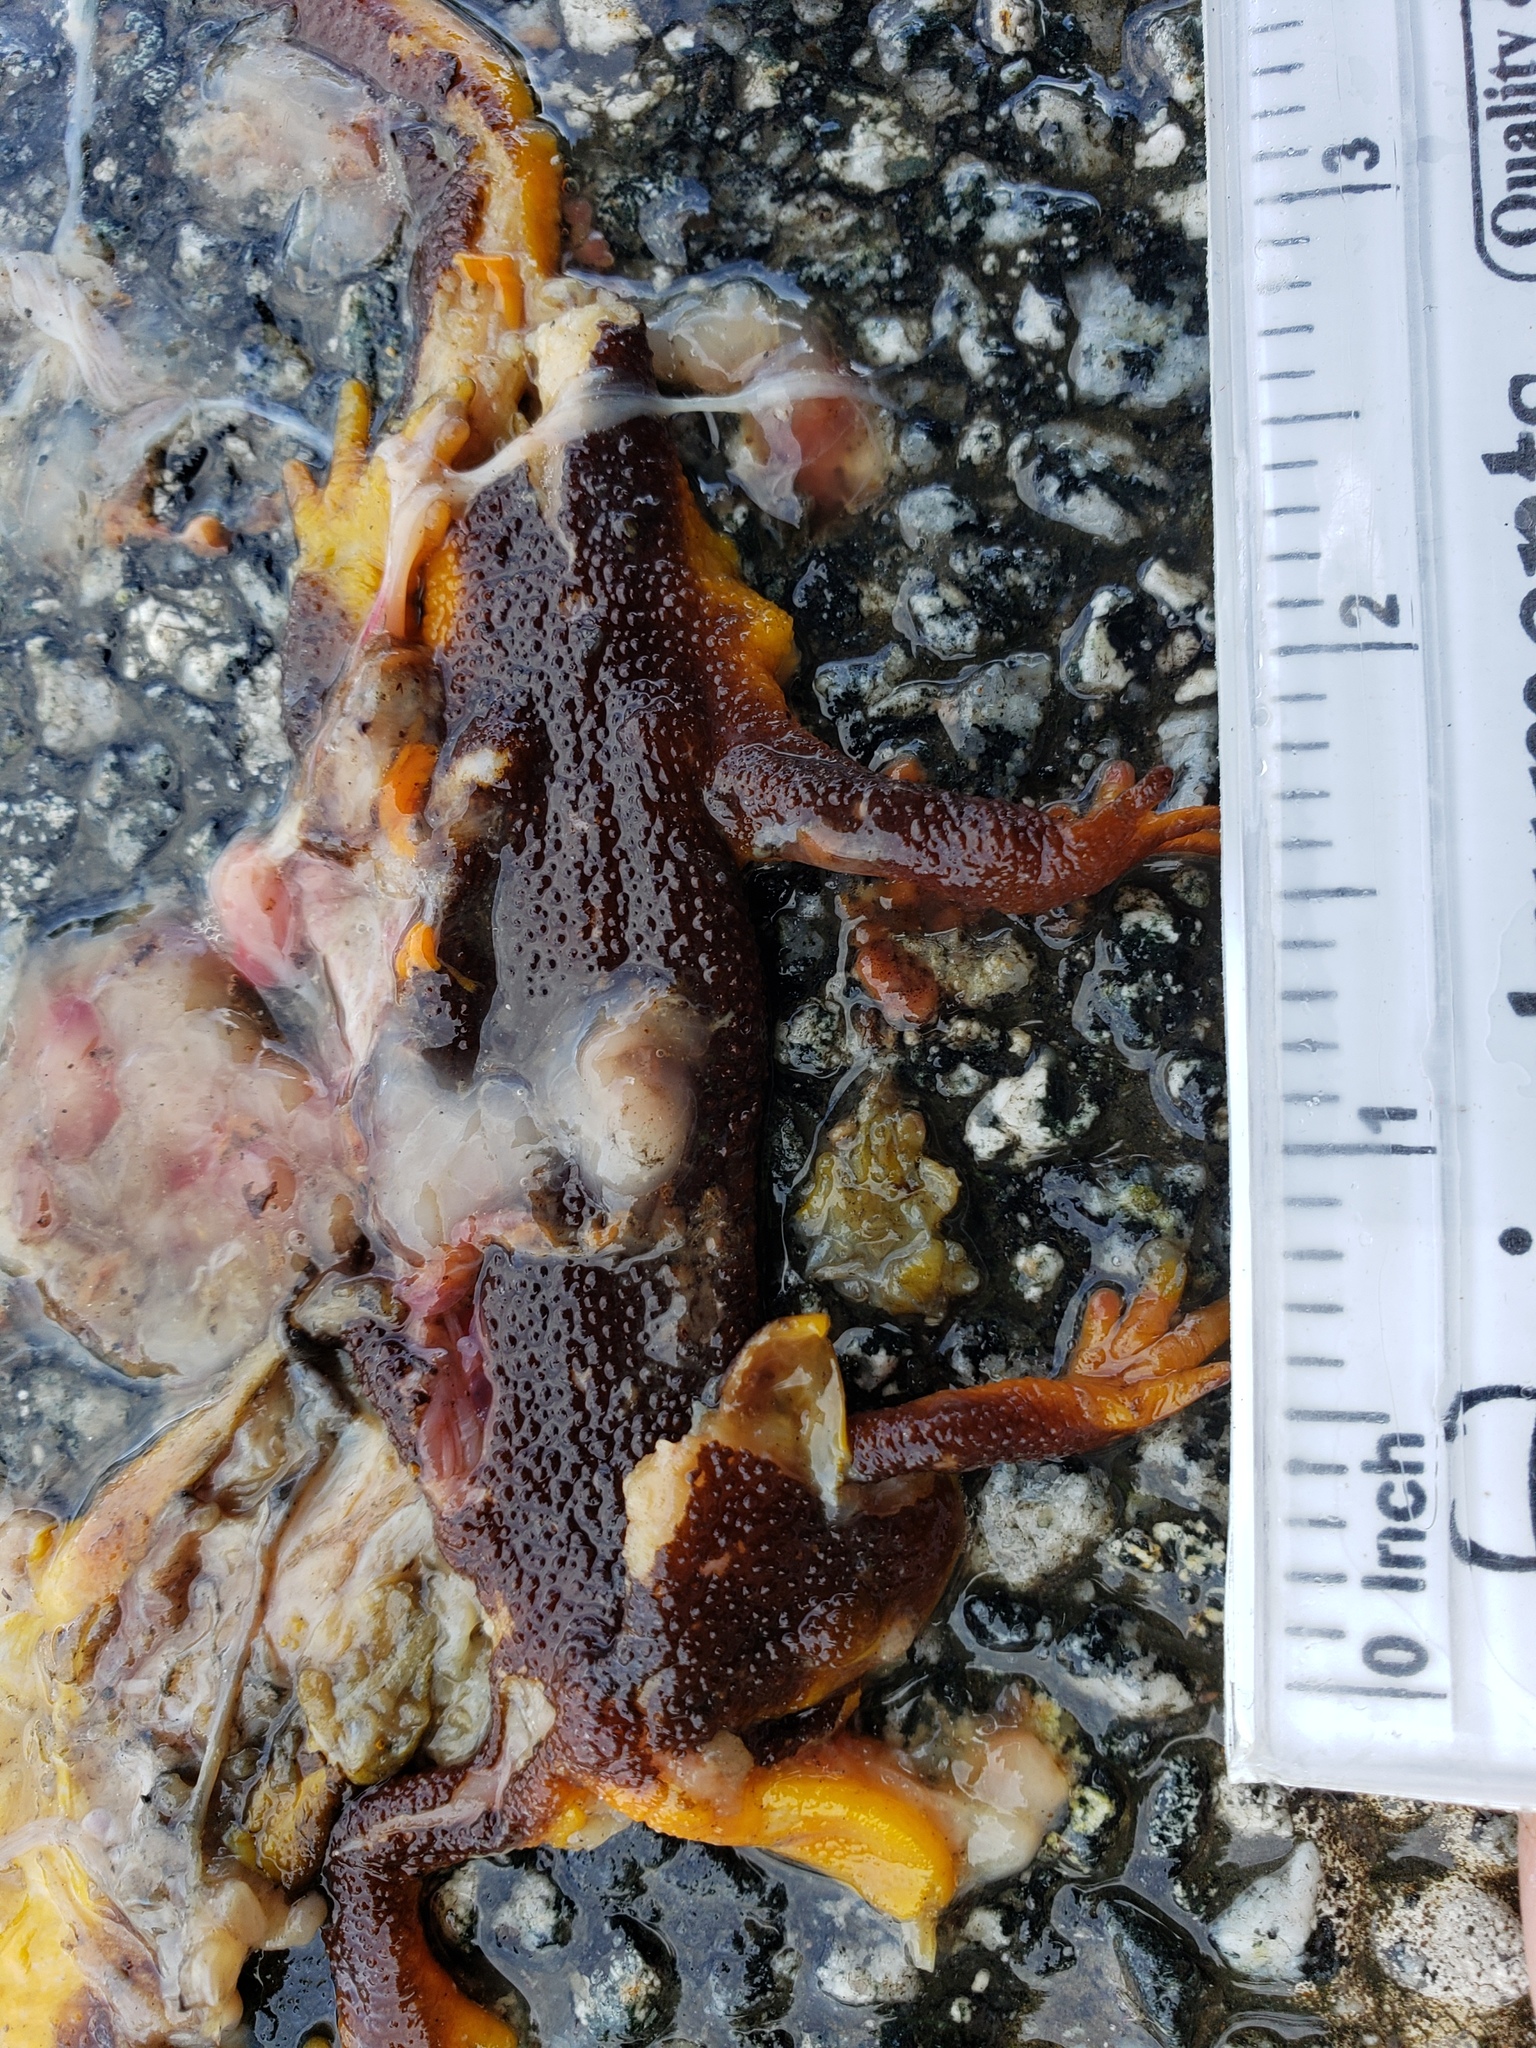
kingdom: Animalia
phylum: Chordata
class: Amphibia
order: Caudata
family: Salamandridae
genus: Taricha
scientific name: Taricha
